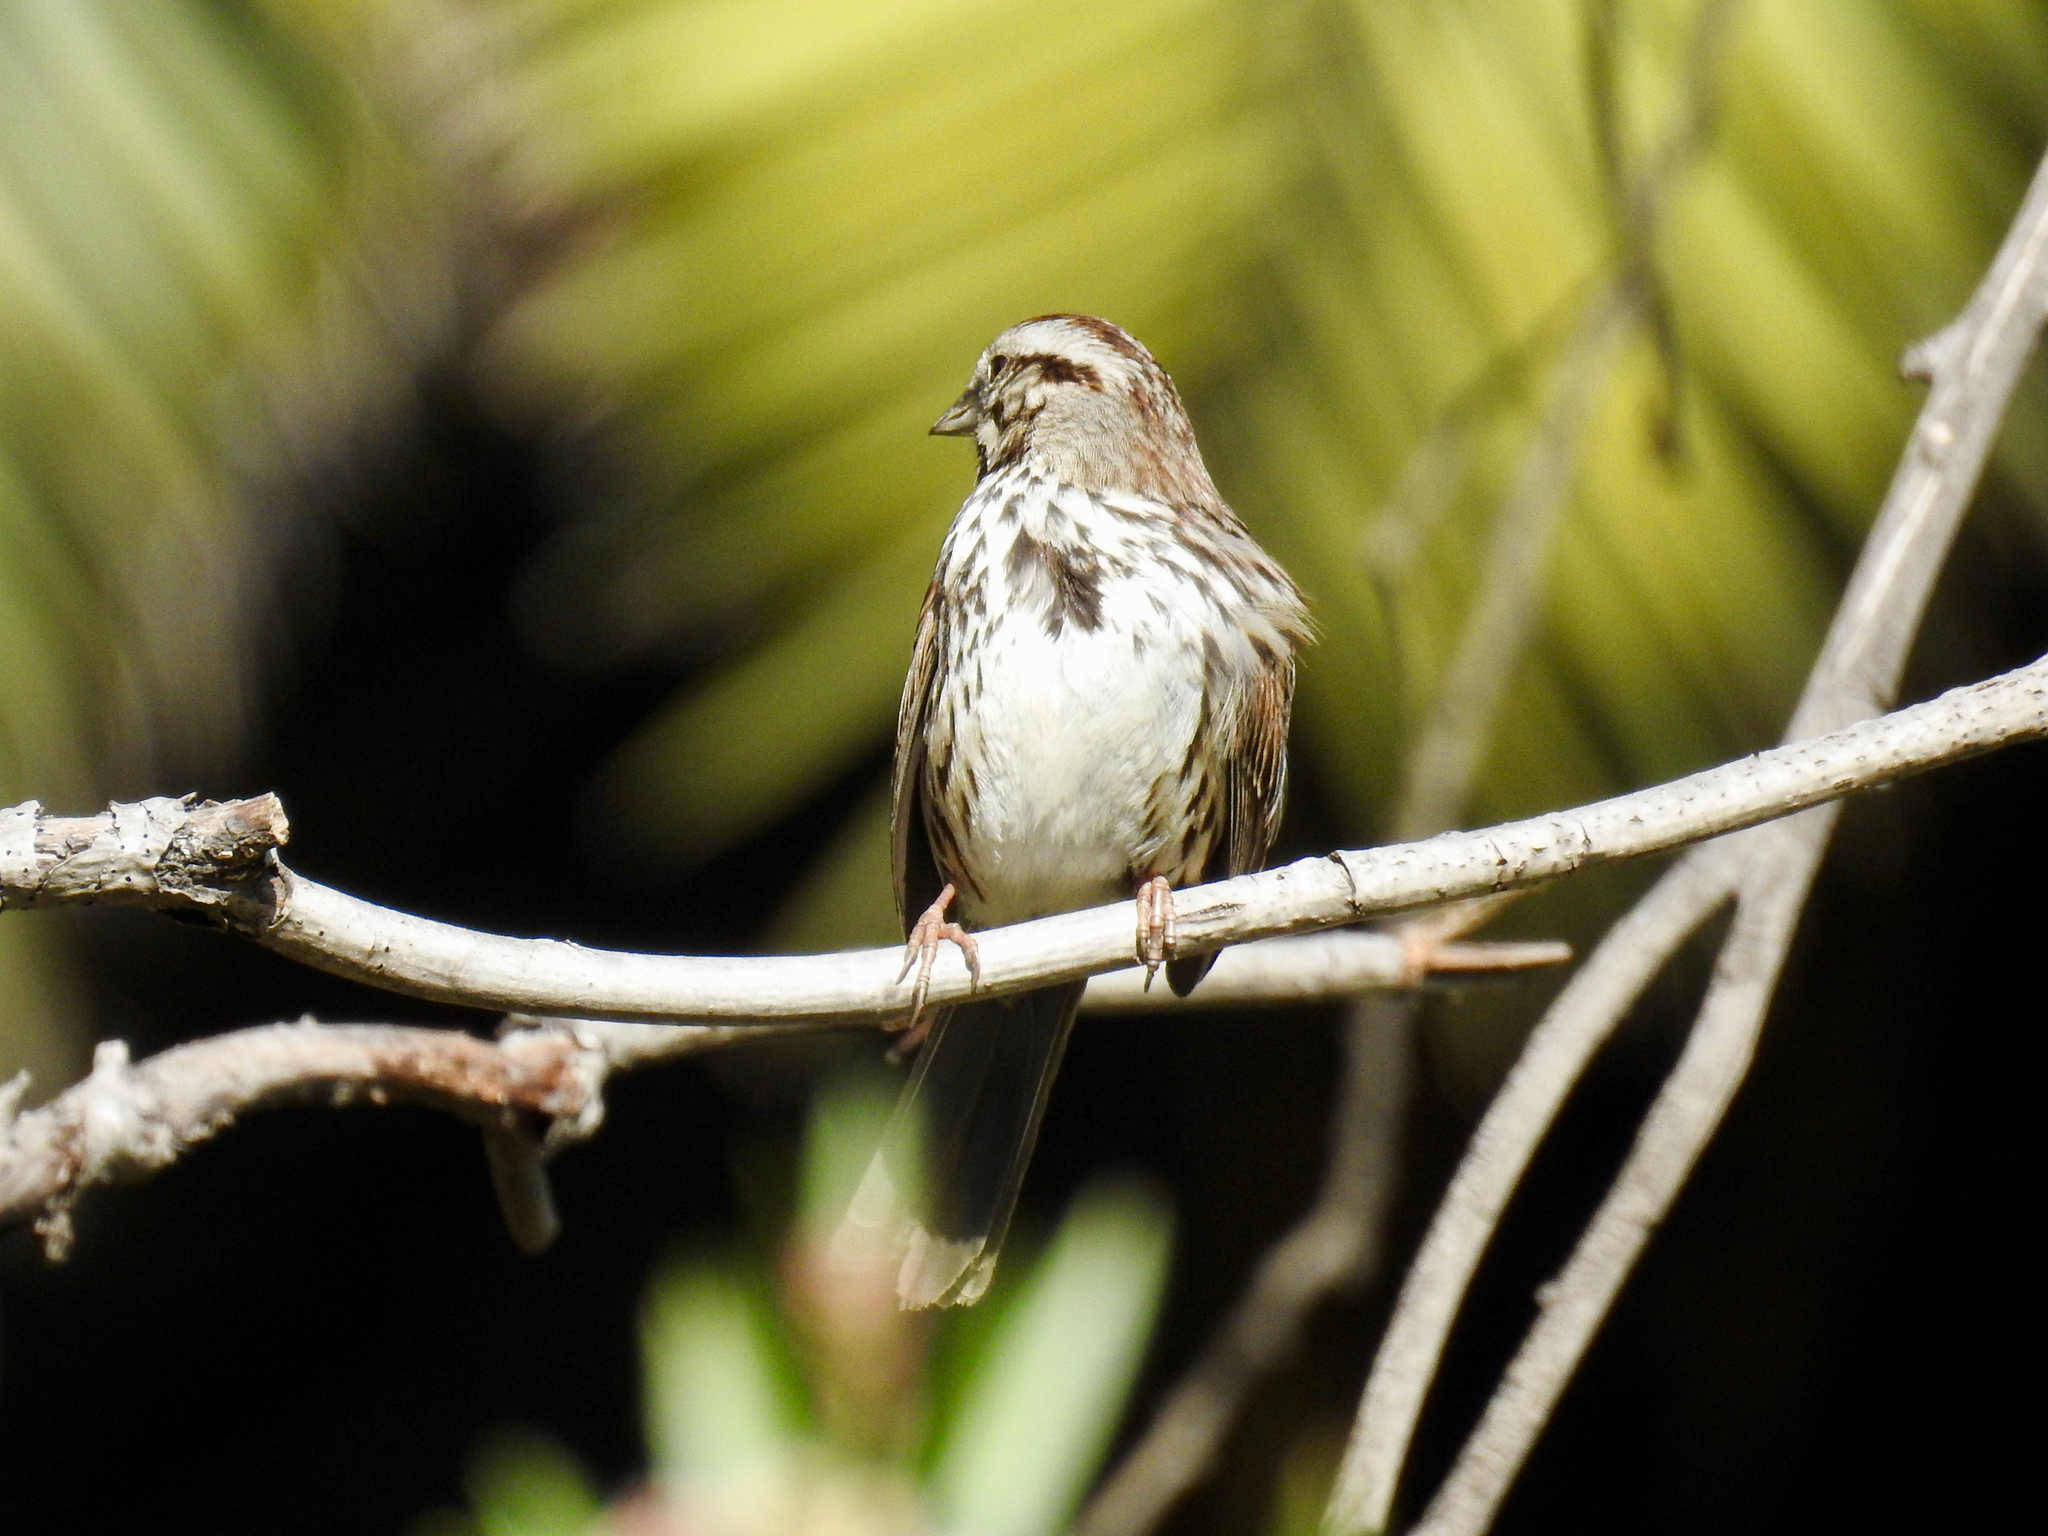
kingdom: Animalia
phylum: Chordata
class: Aves
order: Passeriformes
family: Passerellidae
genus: Melospiza
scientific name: Melospiza melodia
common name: Song sparrow
